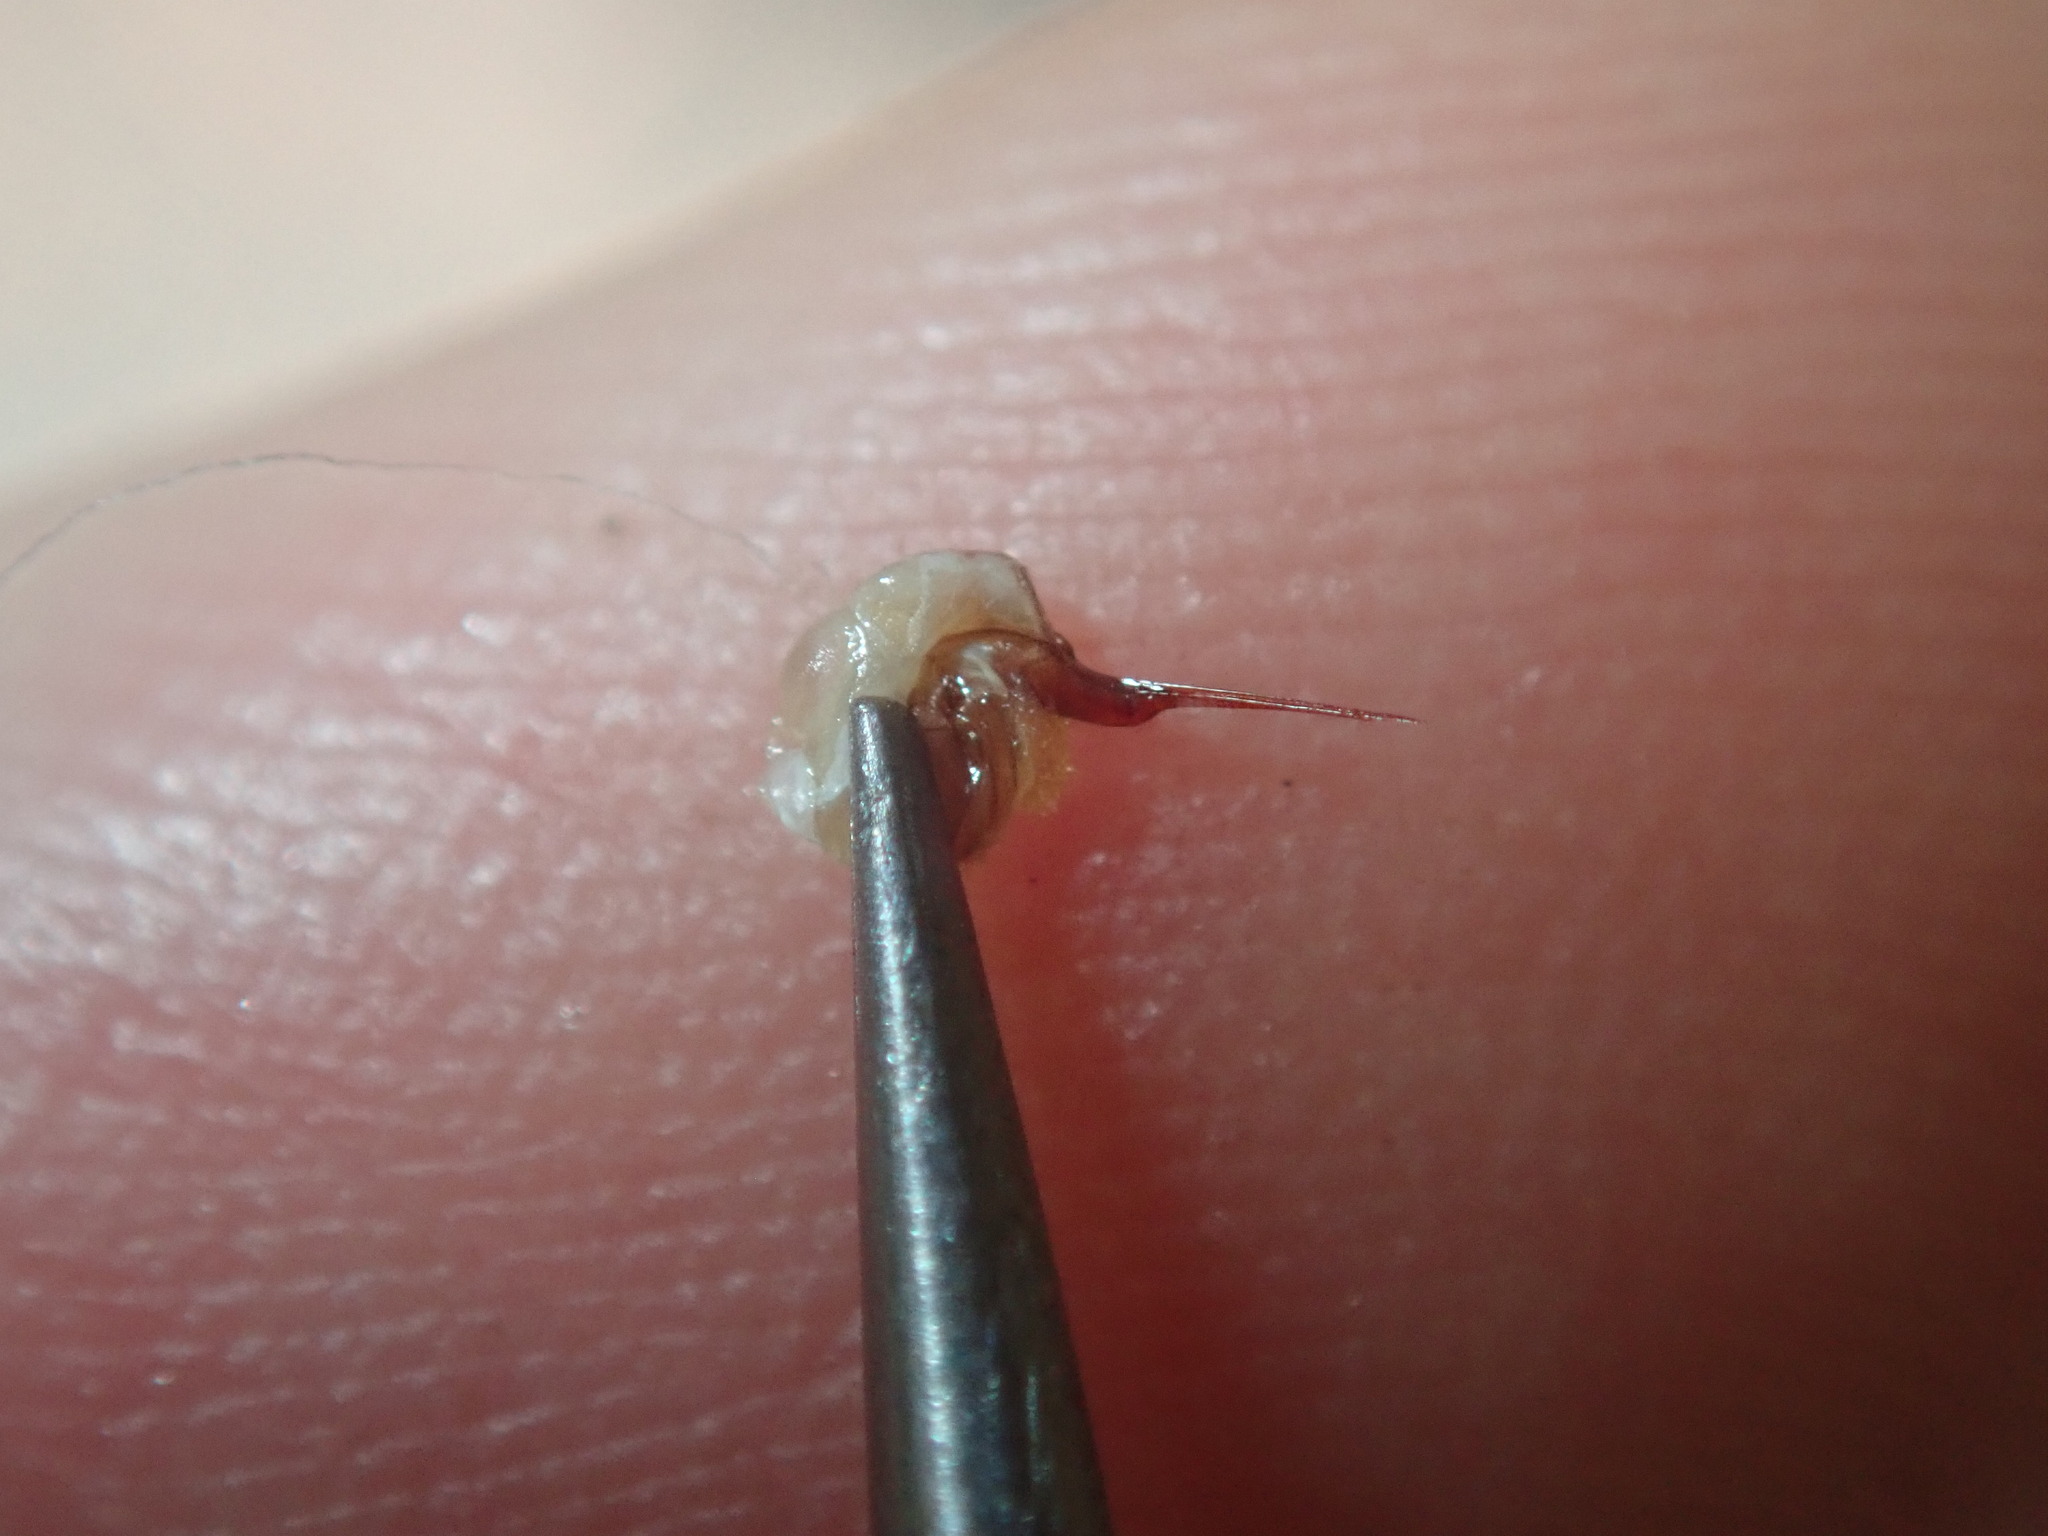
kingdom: Animalia
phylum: Arthropoda
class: Insecta
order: Hymenoptera
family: Apidae
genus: Apis
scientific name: Apis mellifera
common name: Honey bee
